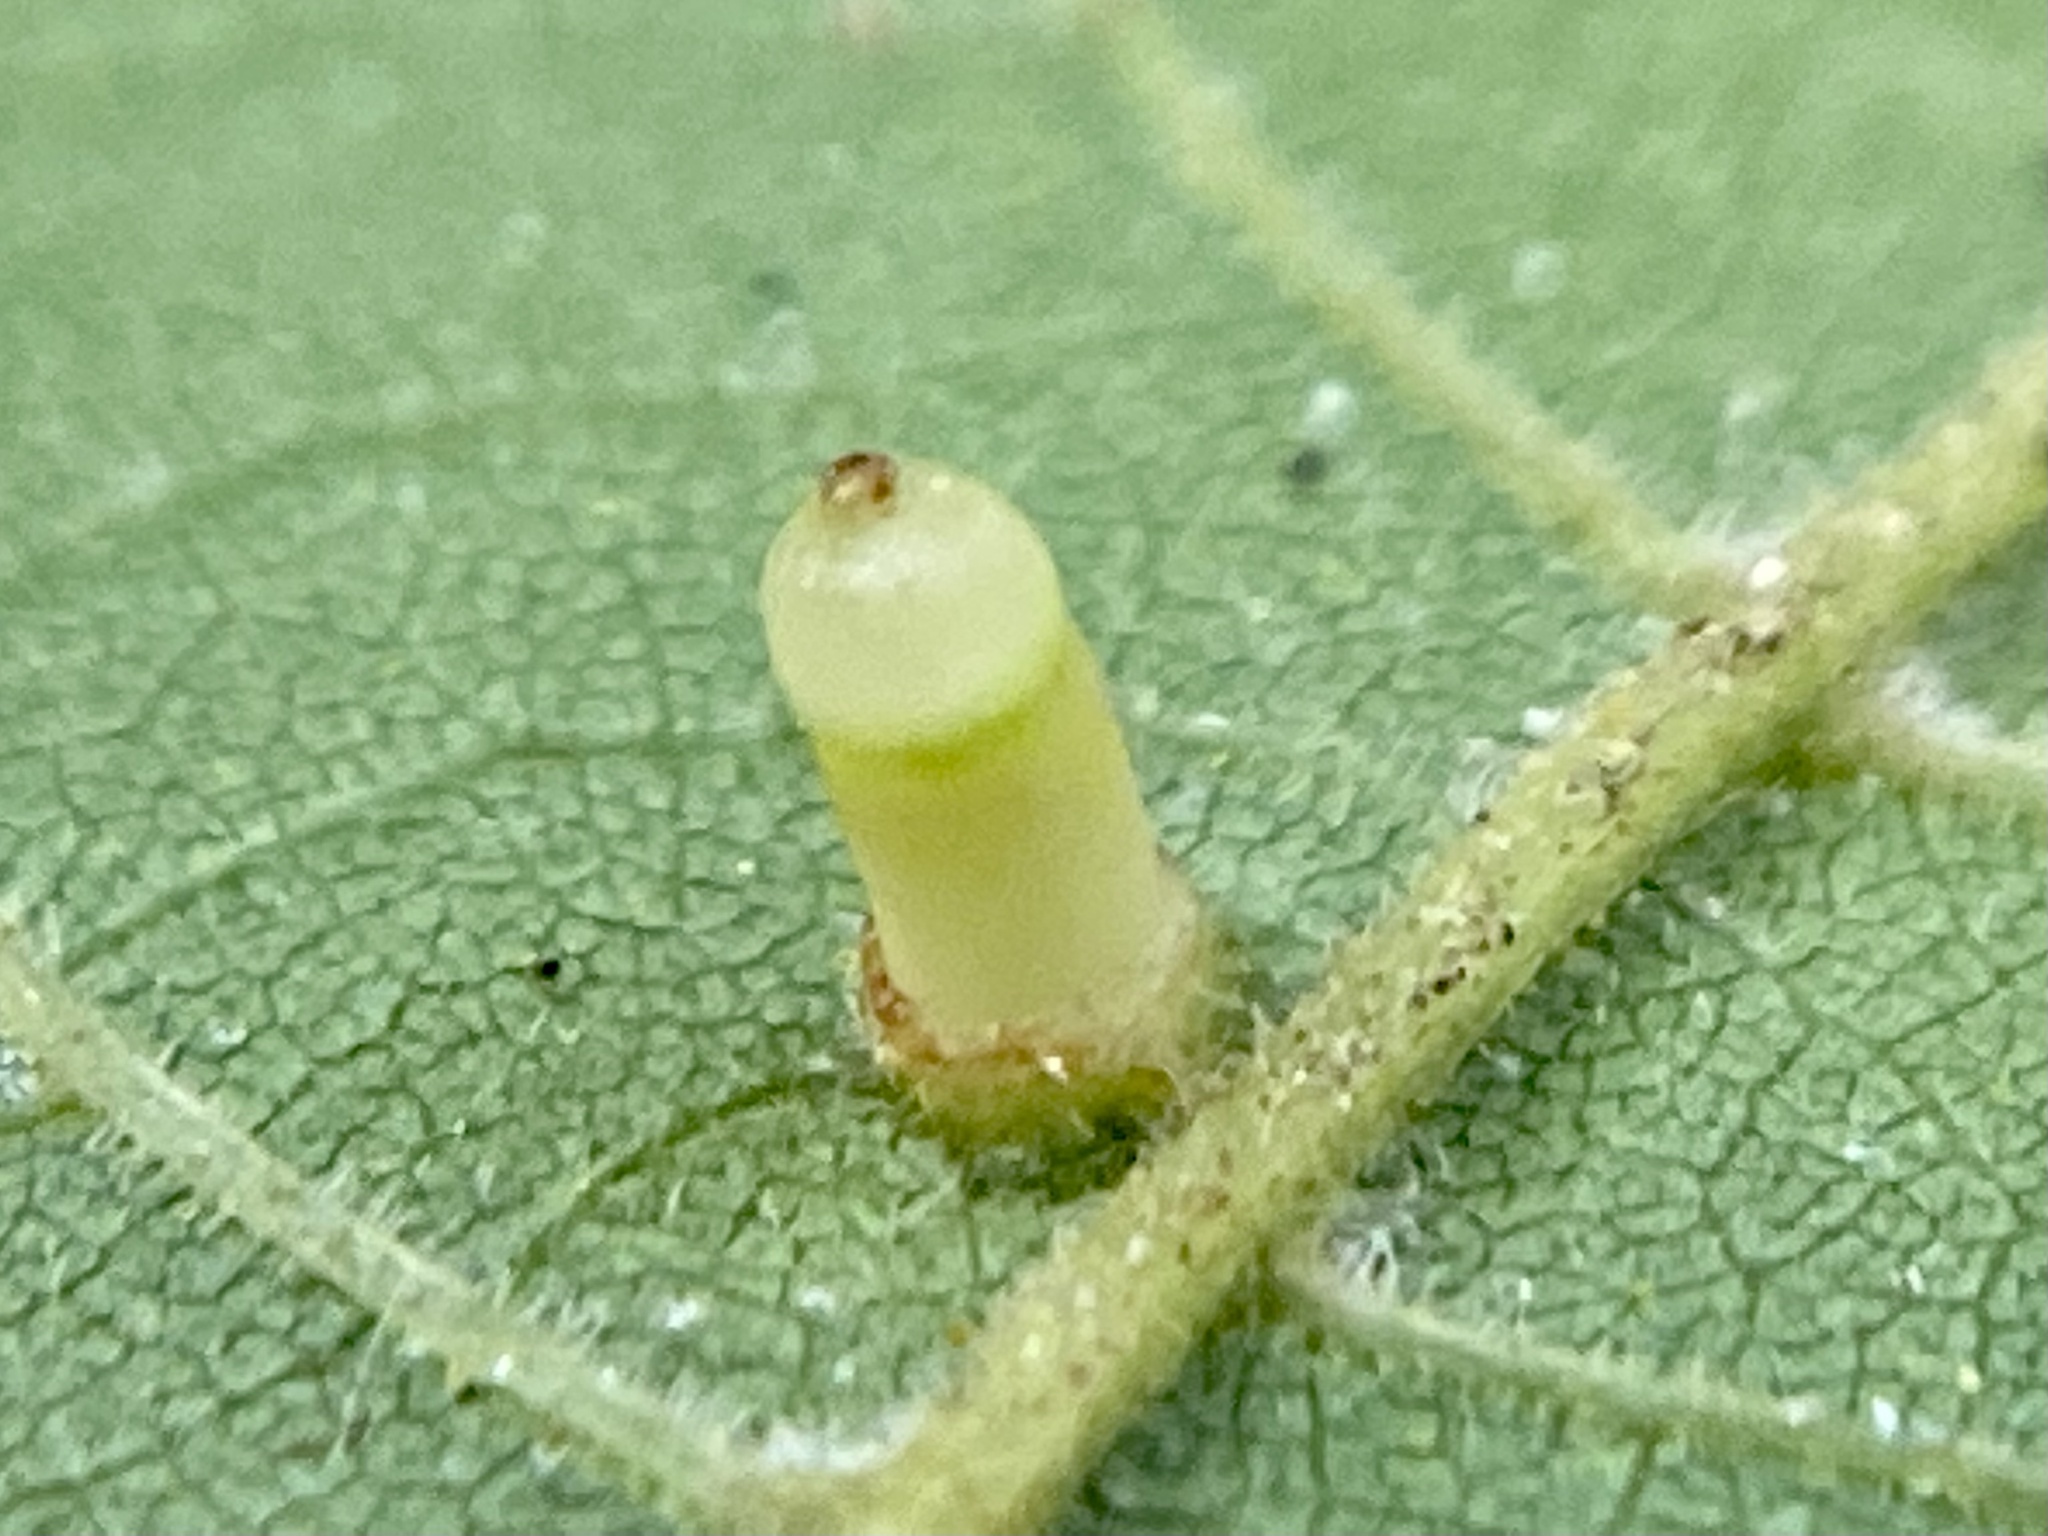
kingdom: Animalia
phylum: Arthropoda
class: Insecta
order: Diptera
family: Cecidomyiidae
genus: Caryomyia
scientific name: Caryomyia tubicola
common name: Hickory bullet gall midge
